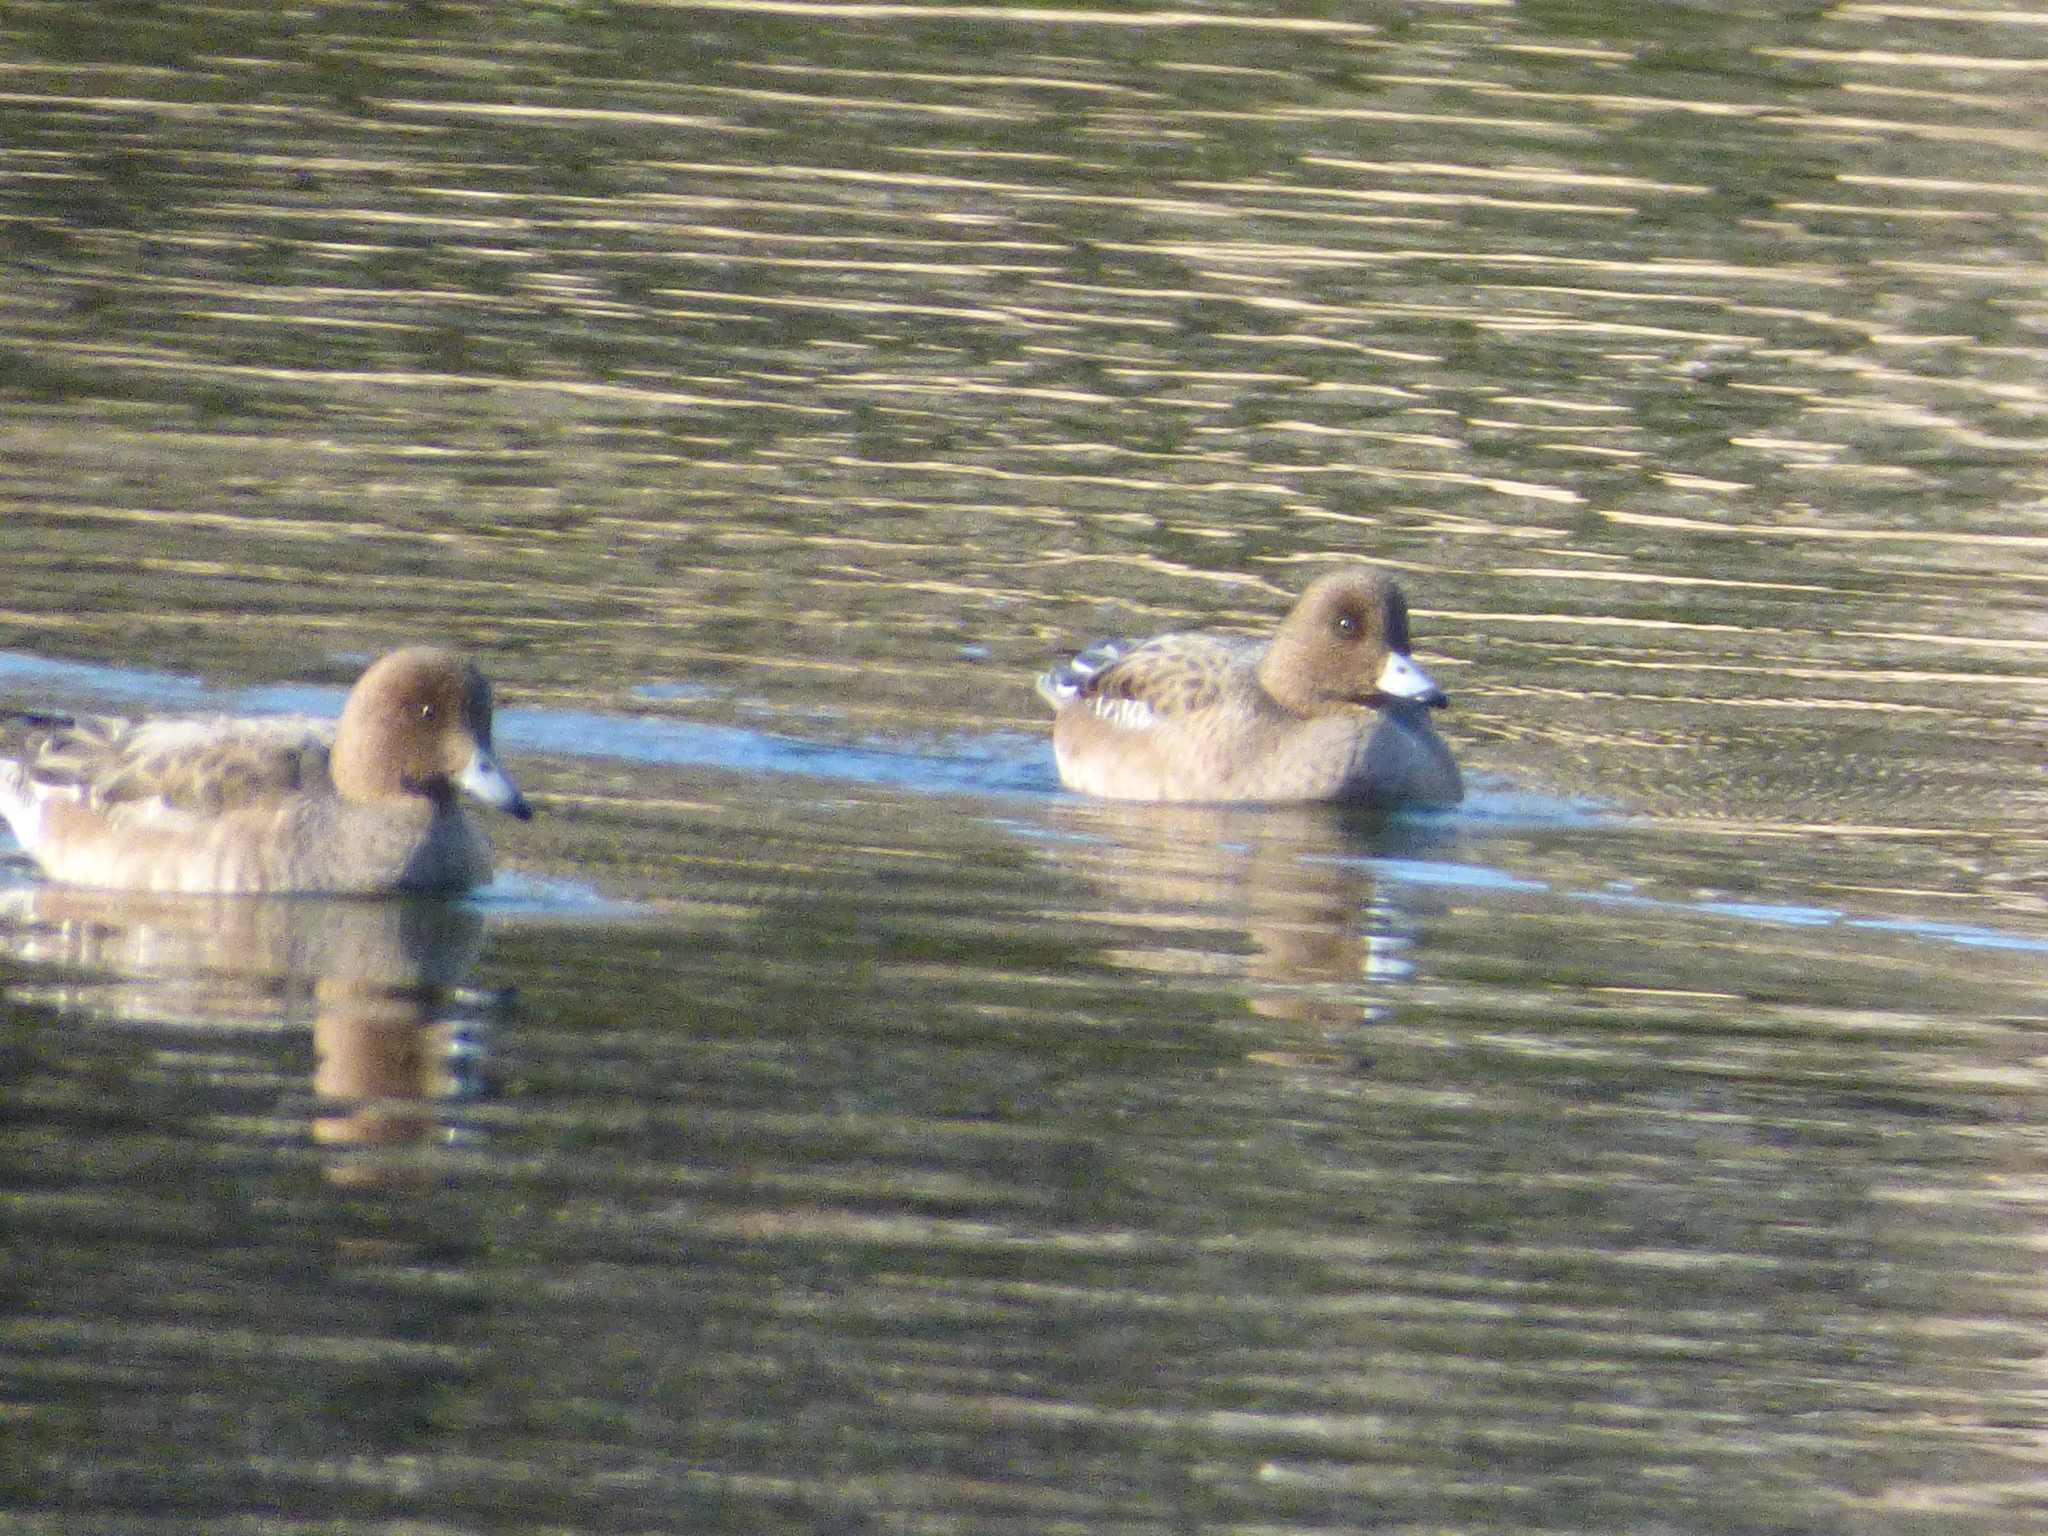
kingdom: Animalia
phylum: Chordata
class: Aves
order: Anseriformes
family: Anatidae
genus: Mareca
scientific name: Mareca penelope
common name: Eurasian wigeon
